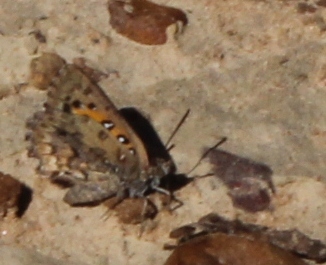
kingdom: Animalia
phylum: Arthropoda
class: Insecta
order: Lepidoptera
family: Lycaenidae
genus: Aloeides
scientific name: Aloeides pierus
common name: Dull copper
